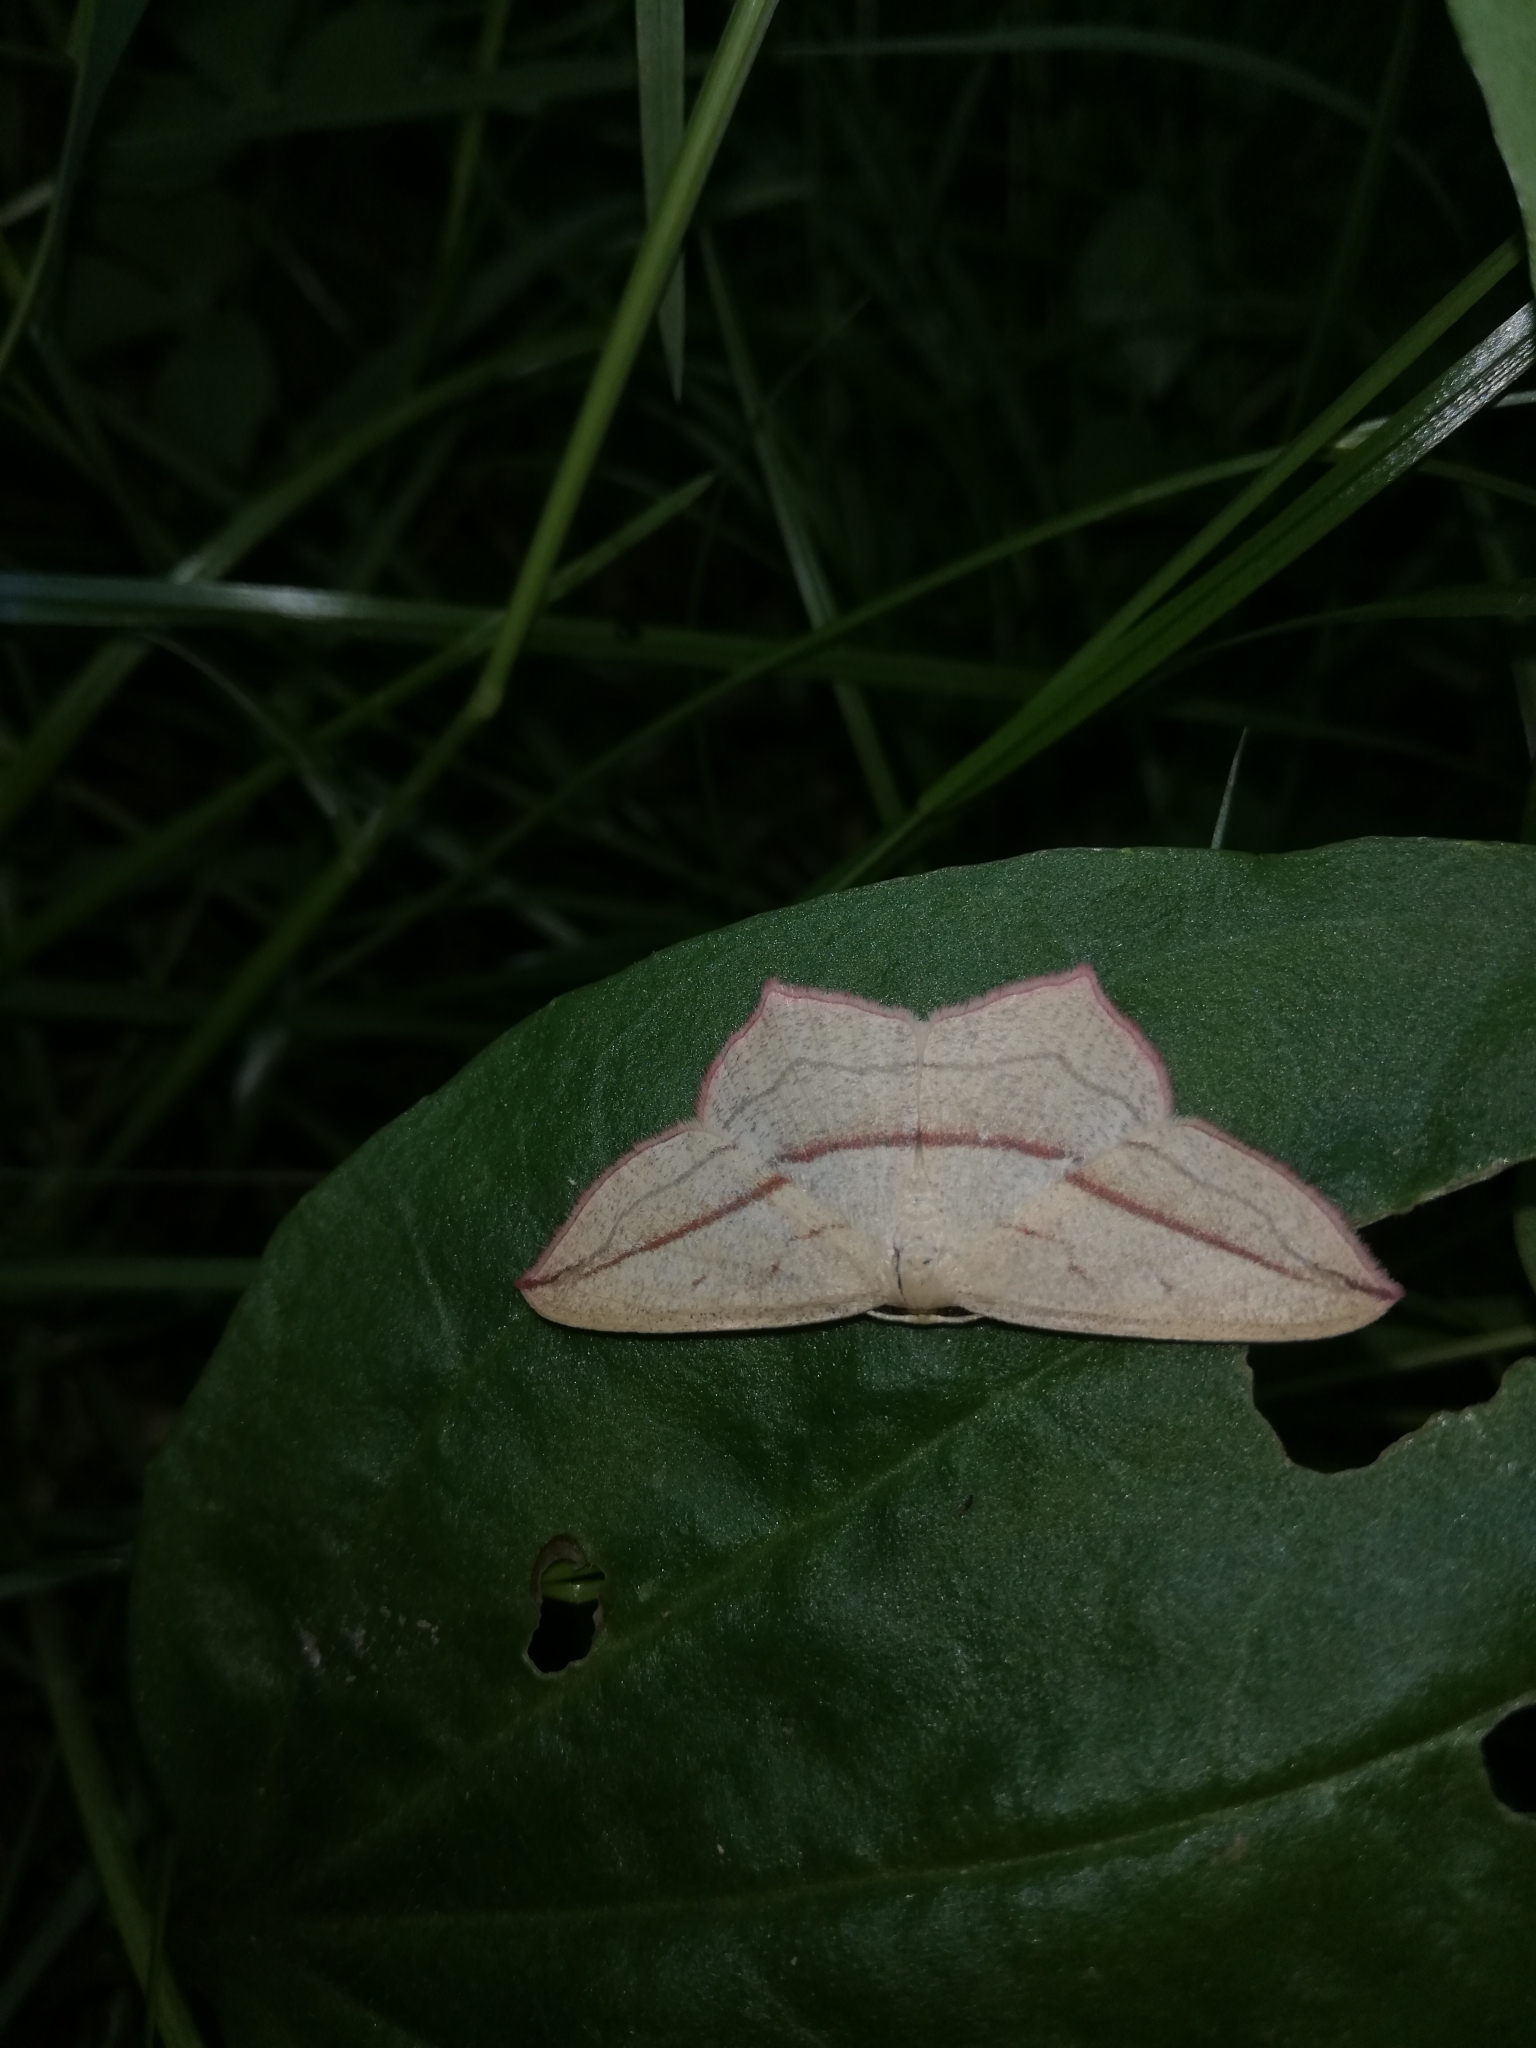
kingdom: Animalia
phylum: Arthropoda
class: Insecta
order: Lepidoptera
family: Geometridae
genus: Timandra
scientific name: Timandra comae
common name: Blood-vein
